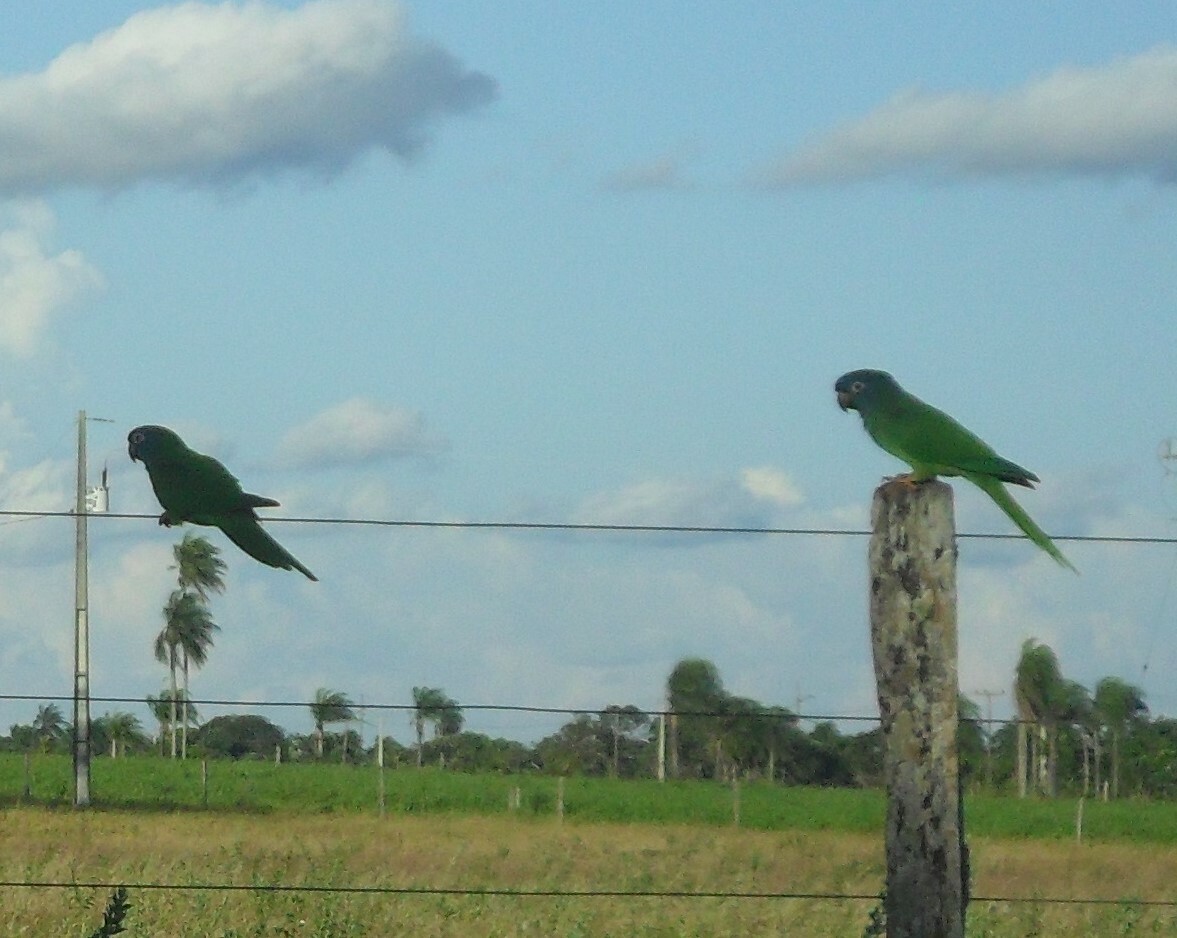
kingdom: Animalia
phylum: Chordata
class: Aves
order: Psittaciformes
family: Psittacidae
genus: Aratinga
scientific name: Aratinga acuticaudata
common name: Blue-crowned parakeet
